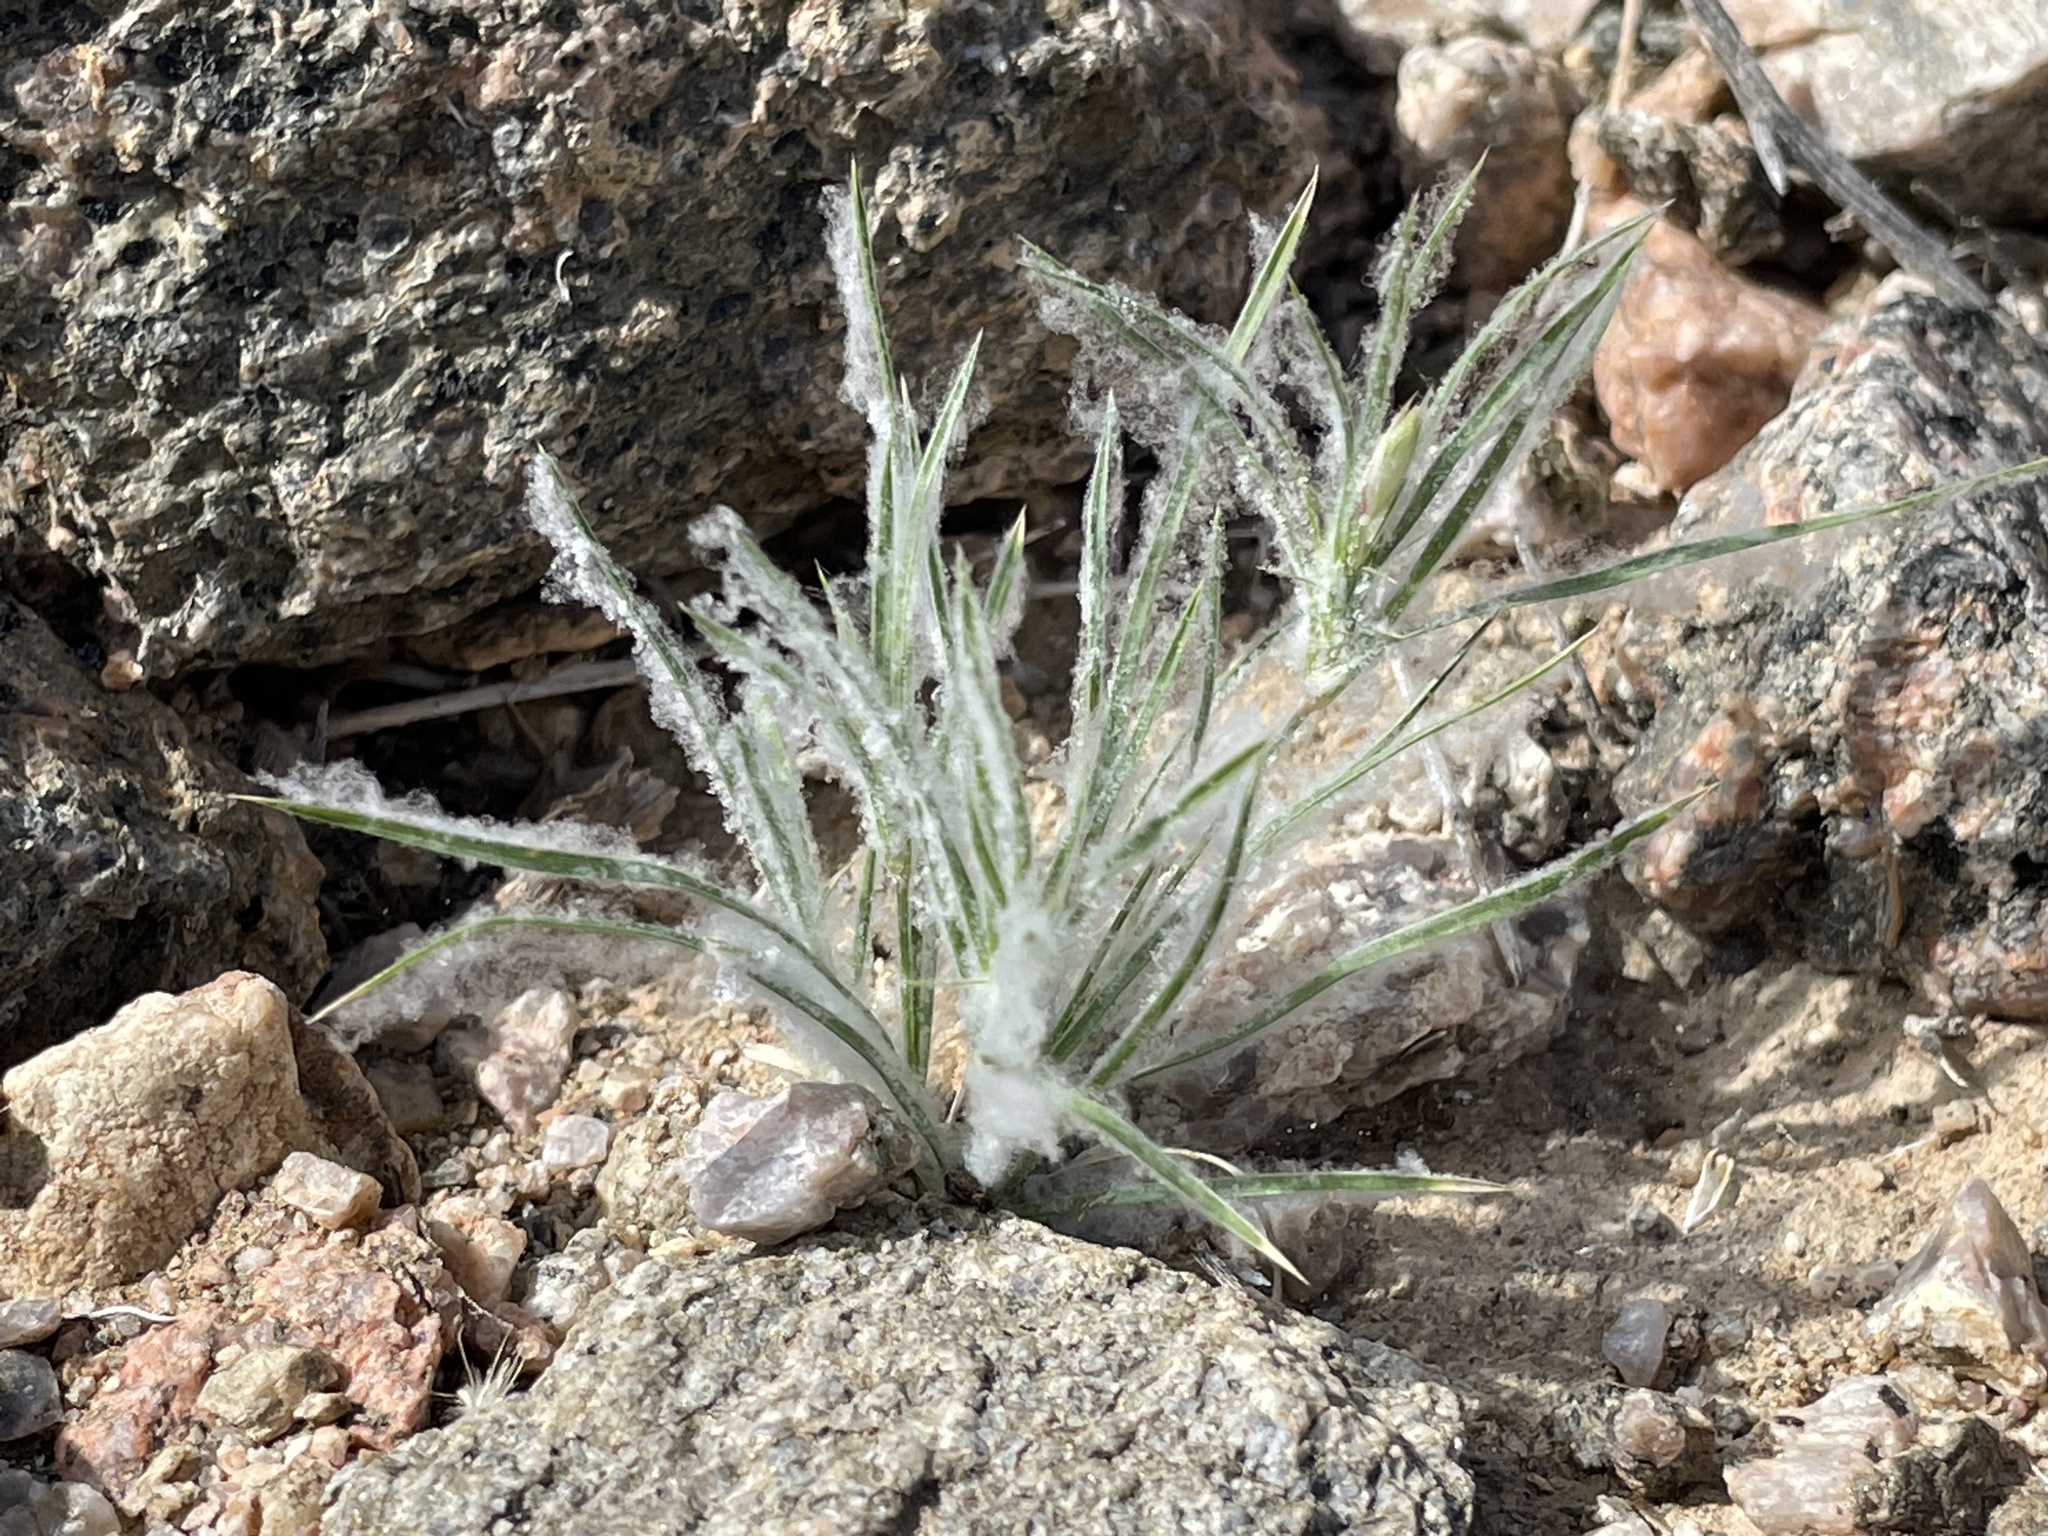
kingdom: Plantae
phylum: Tracheophyta
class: Liliopsida
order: Poales
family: Poaceae
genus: Dasyochloa
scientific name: Dasyochloa pulchella
